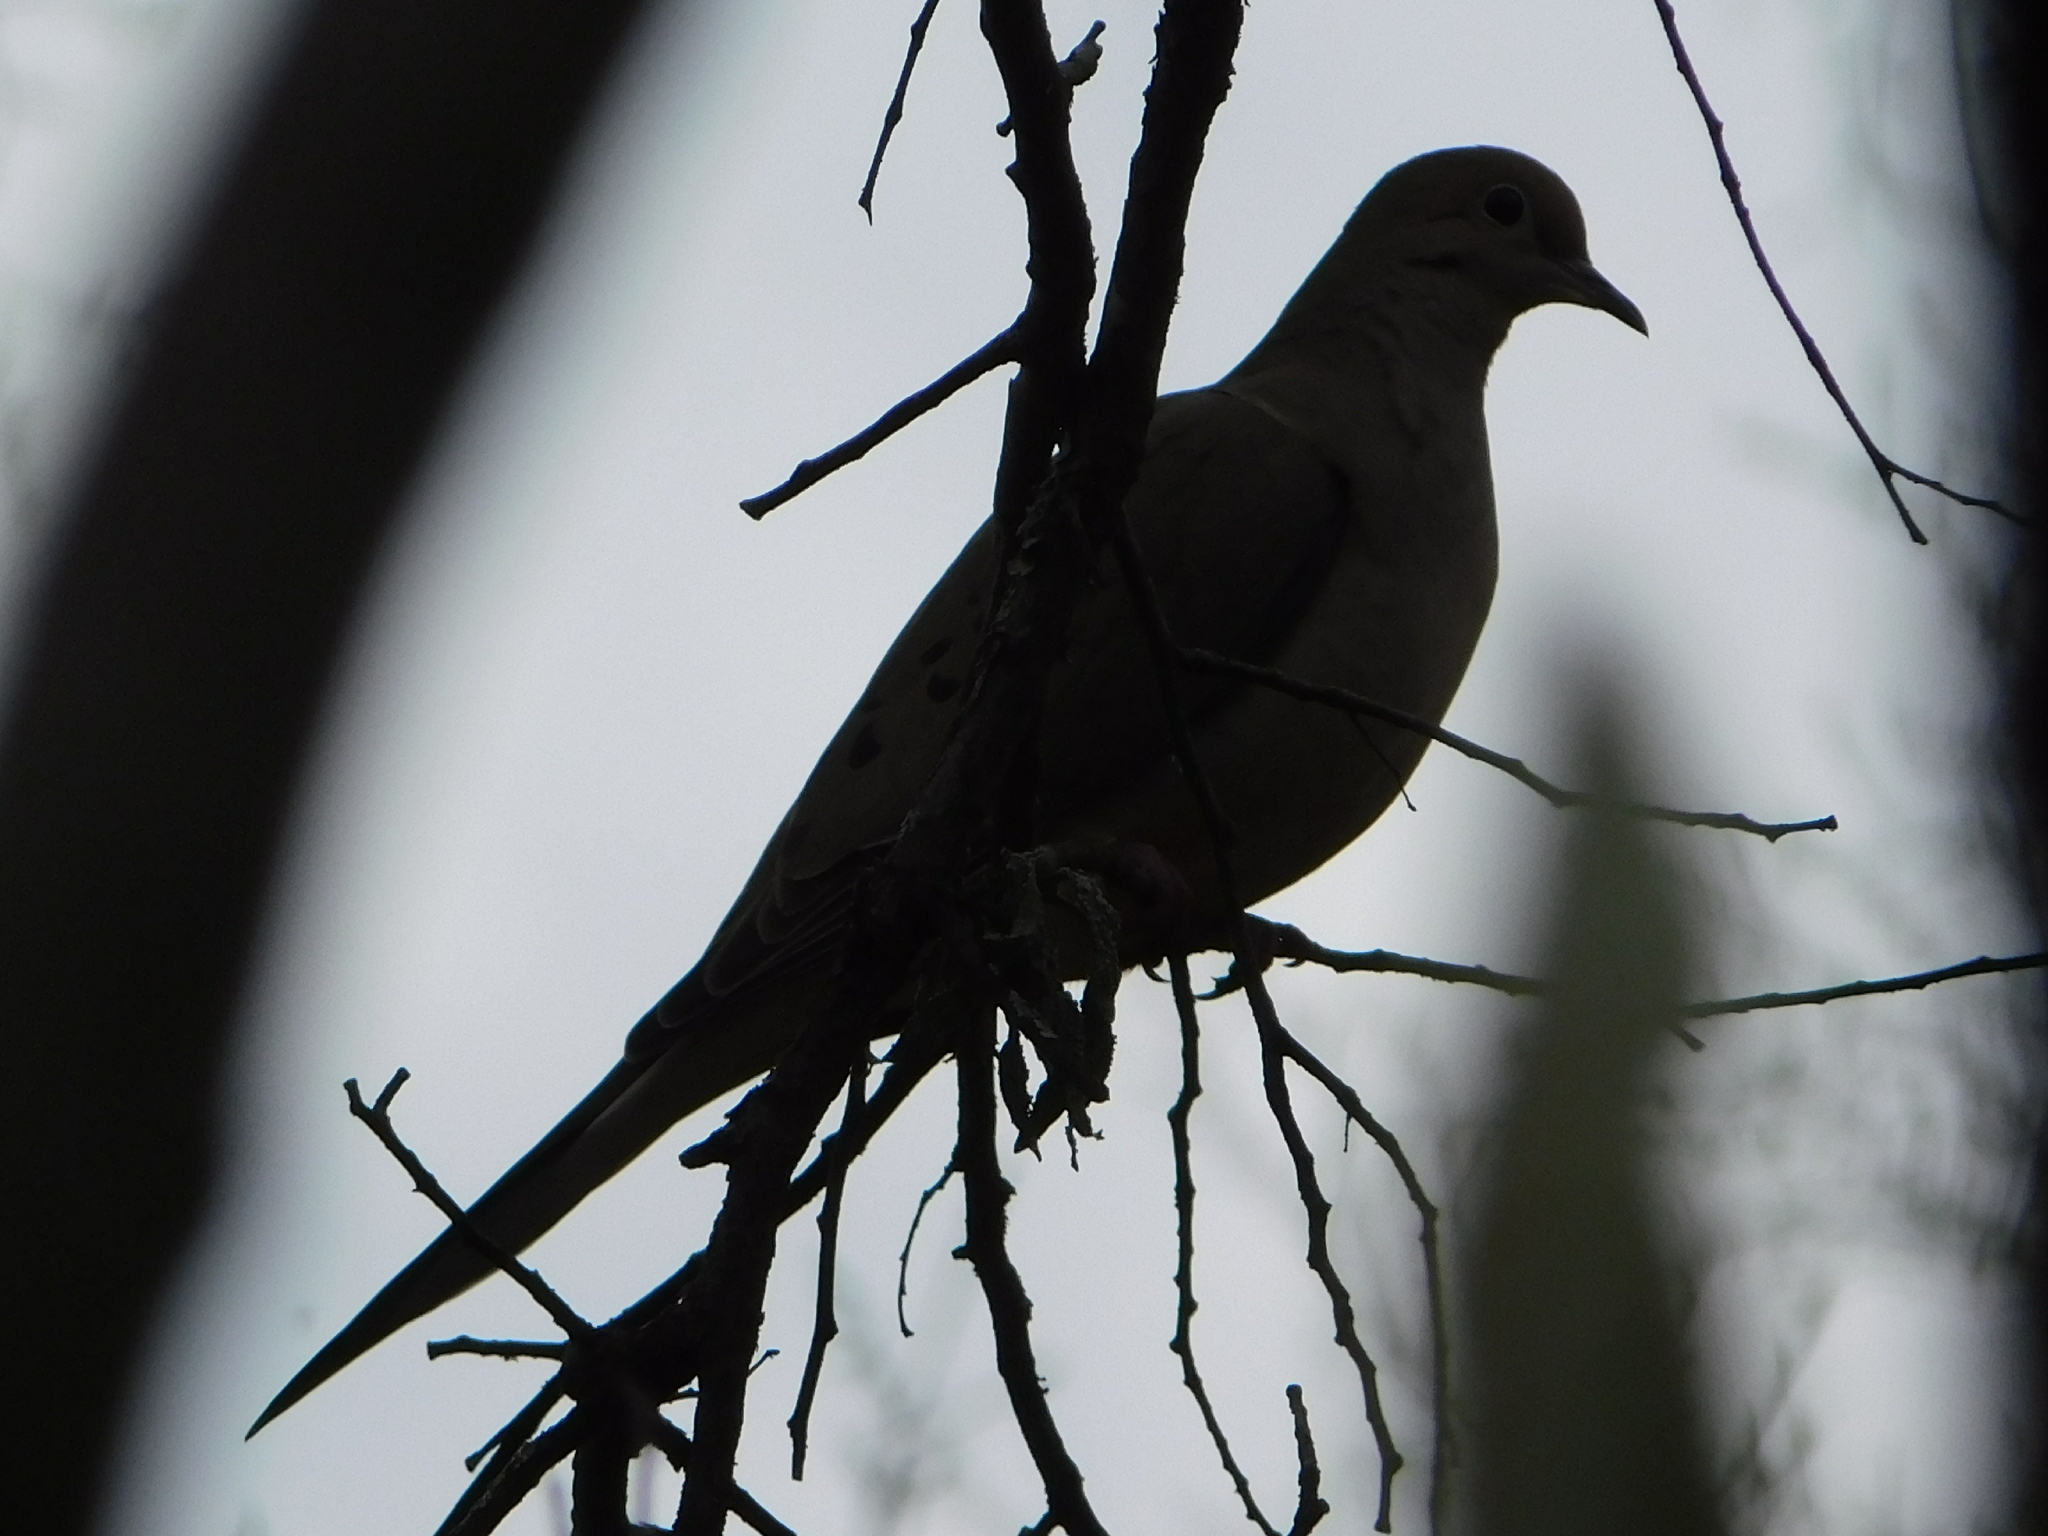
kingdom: Animalia
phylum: Chordata
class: Aves
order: Columbiformes
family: Columbidae
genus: Zenaida
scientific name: Zenaida macroura
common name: Mourning dove
